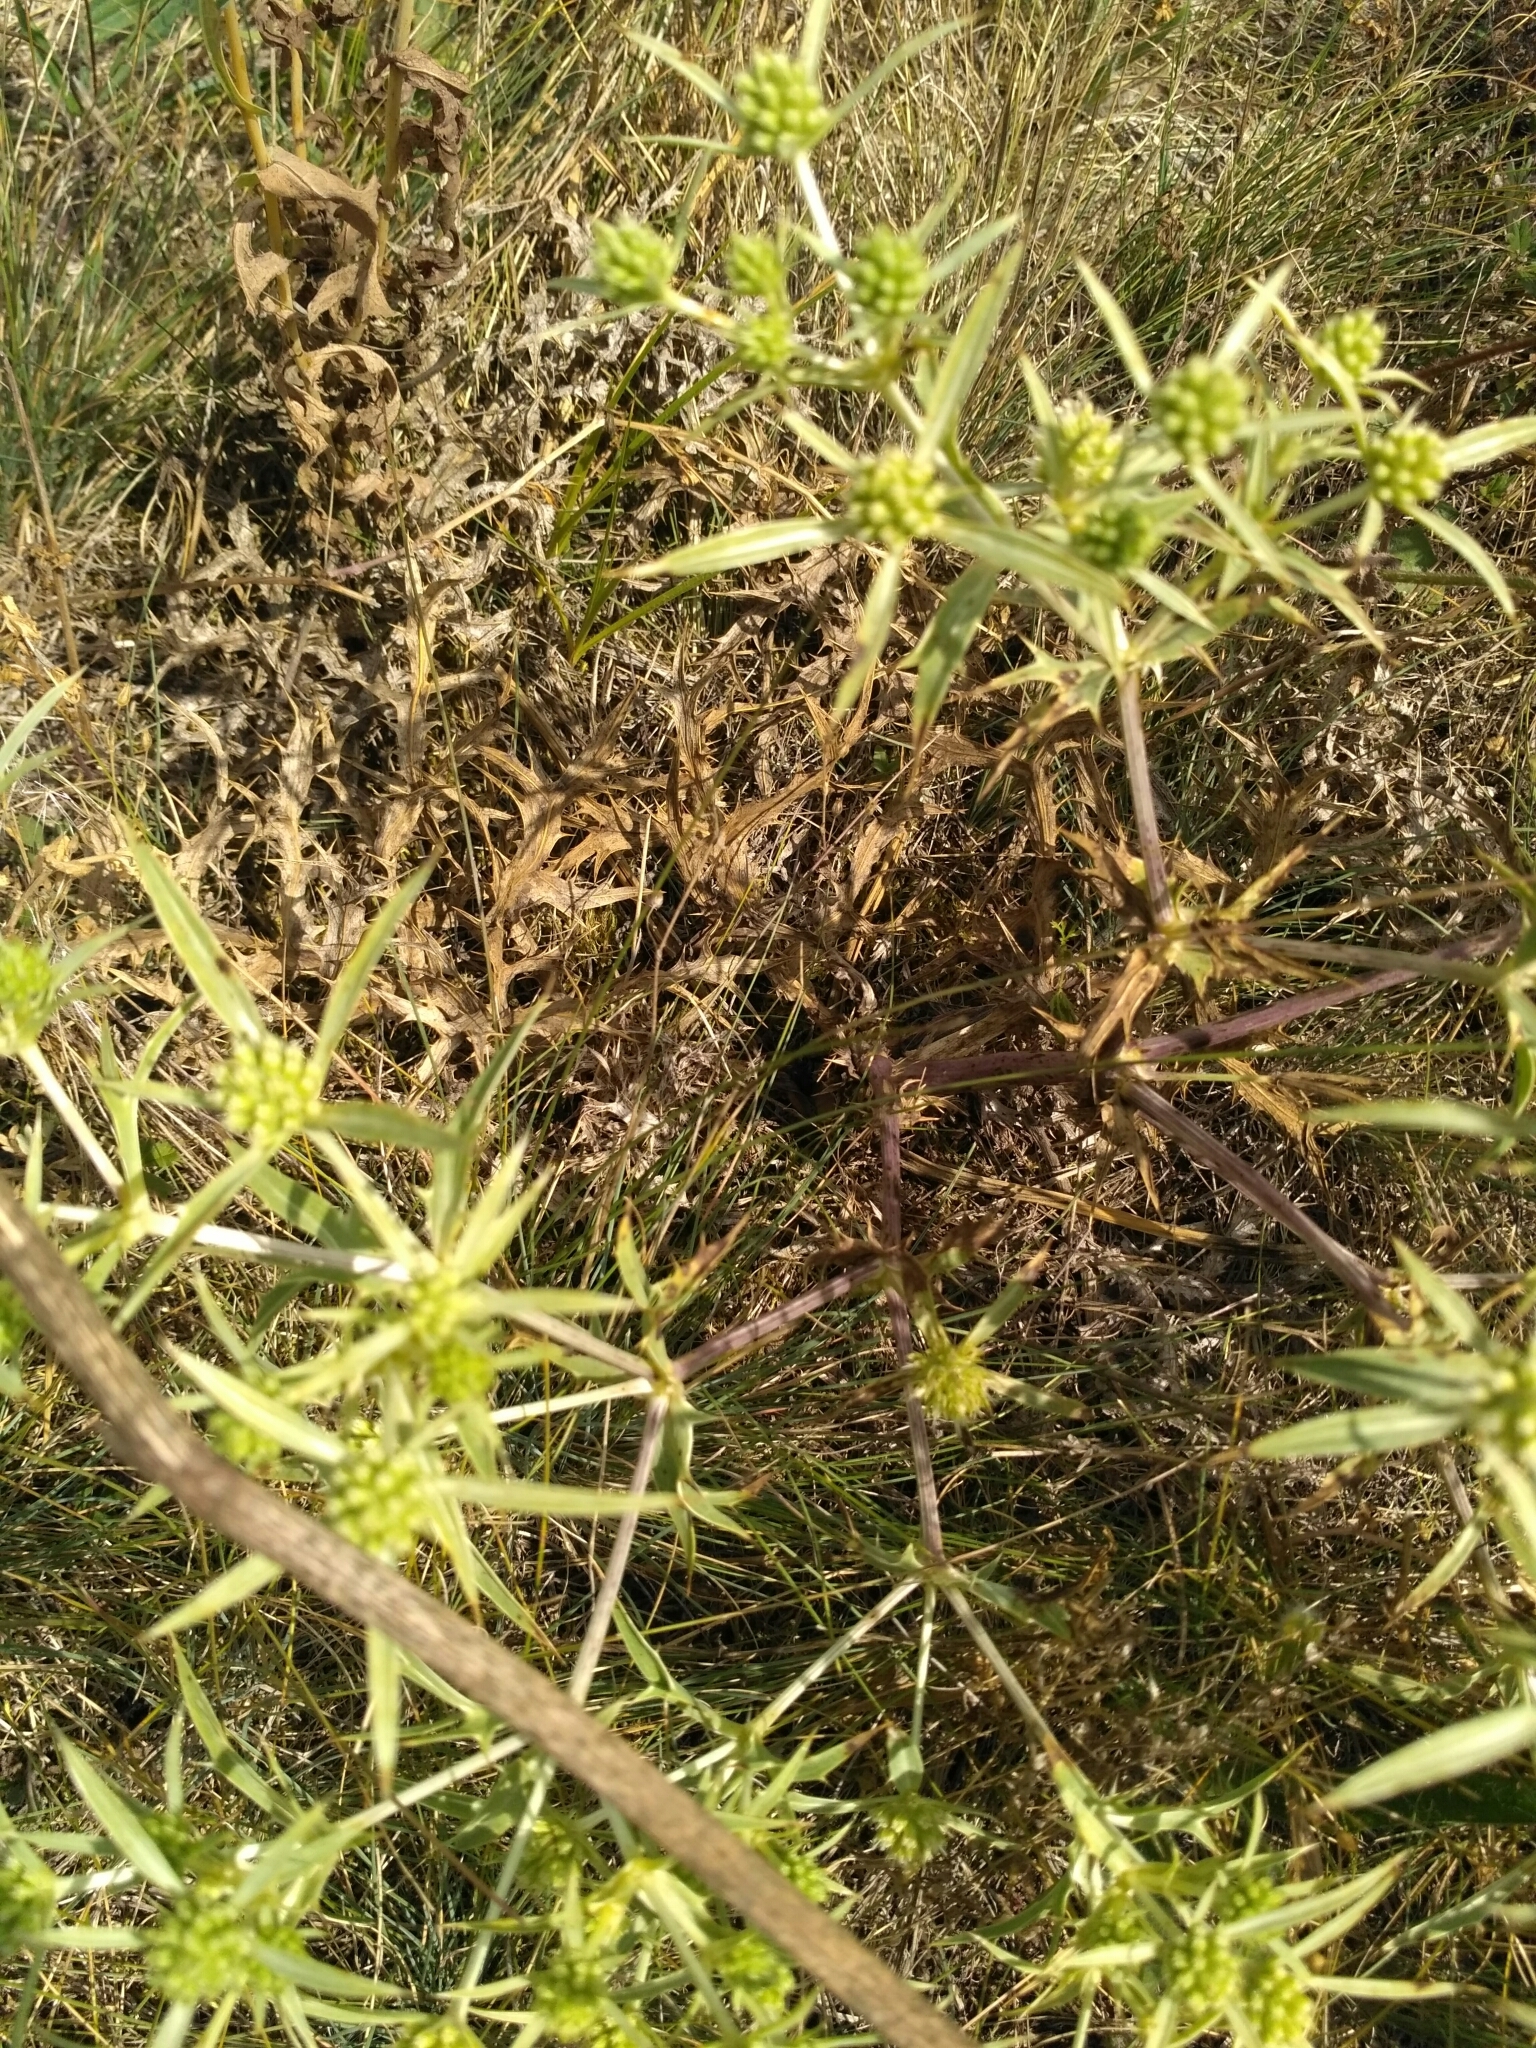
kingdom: Plantae
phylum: Tracheophyta
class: Magnoliopsida
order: Apiales
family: Apiaceae
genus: Eryngium
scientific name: Eryngium campestre
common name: Field eryngo
